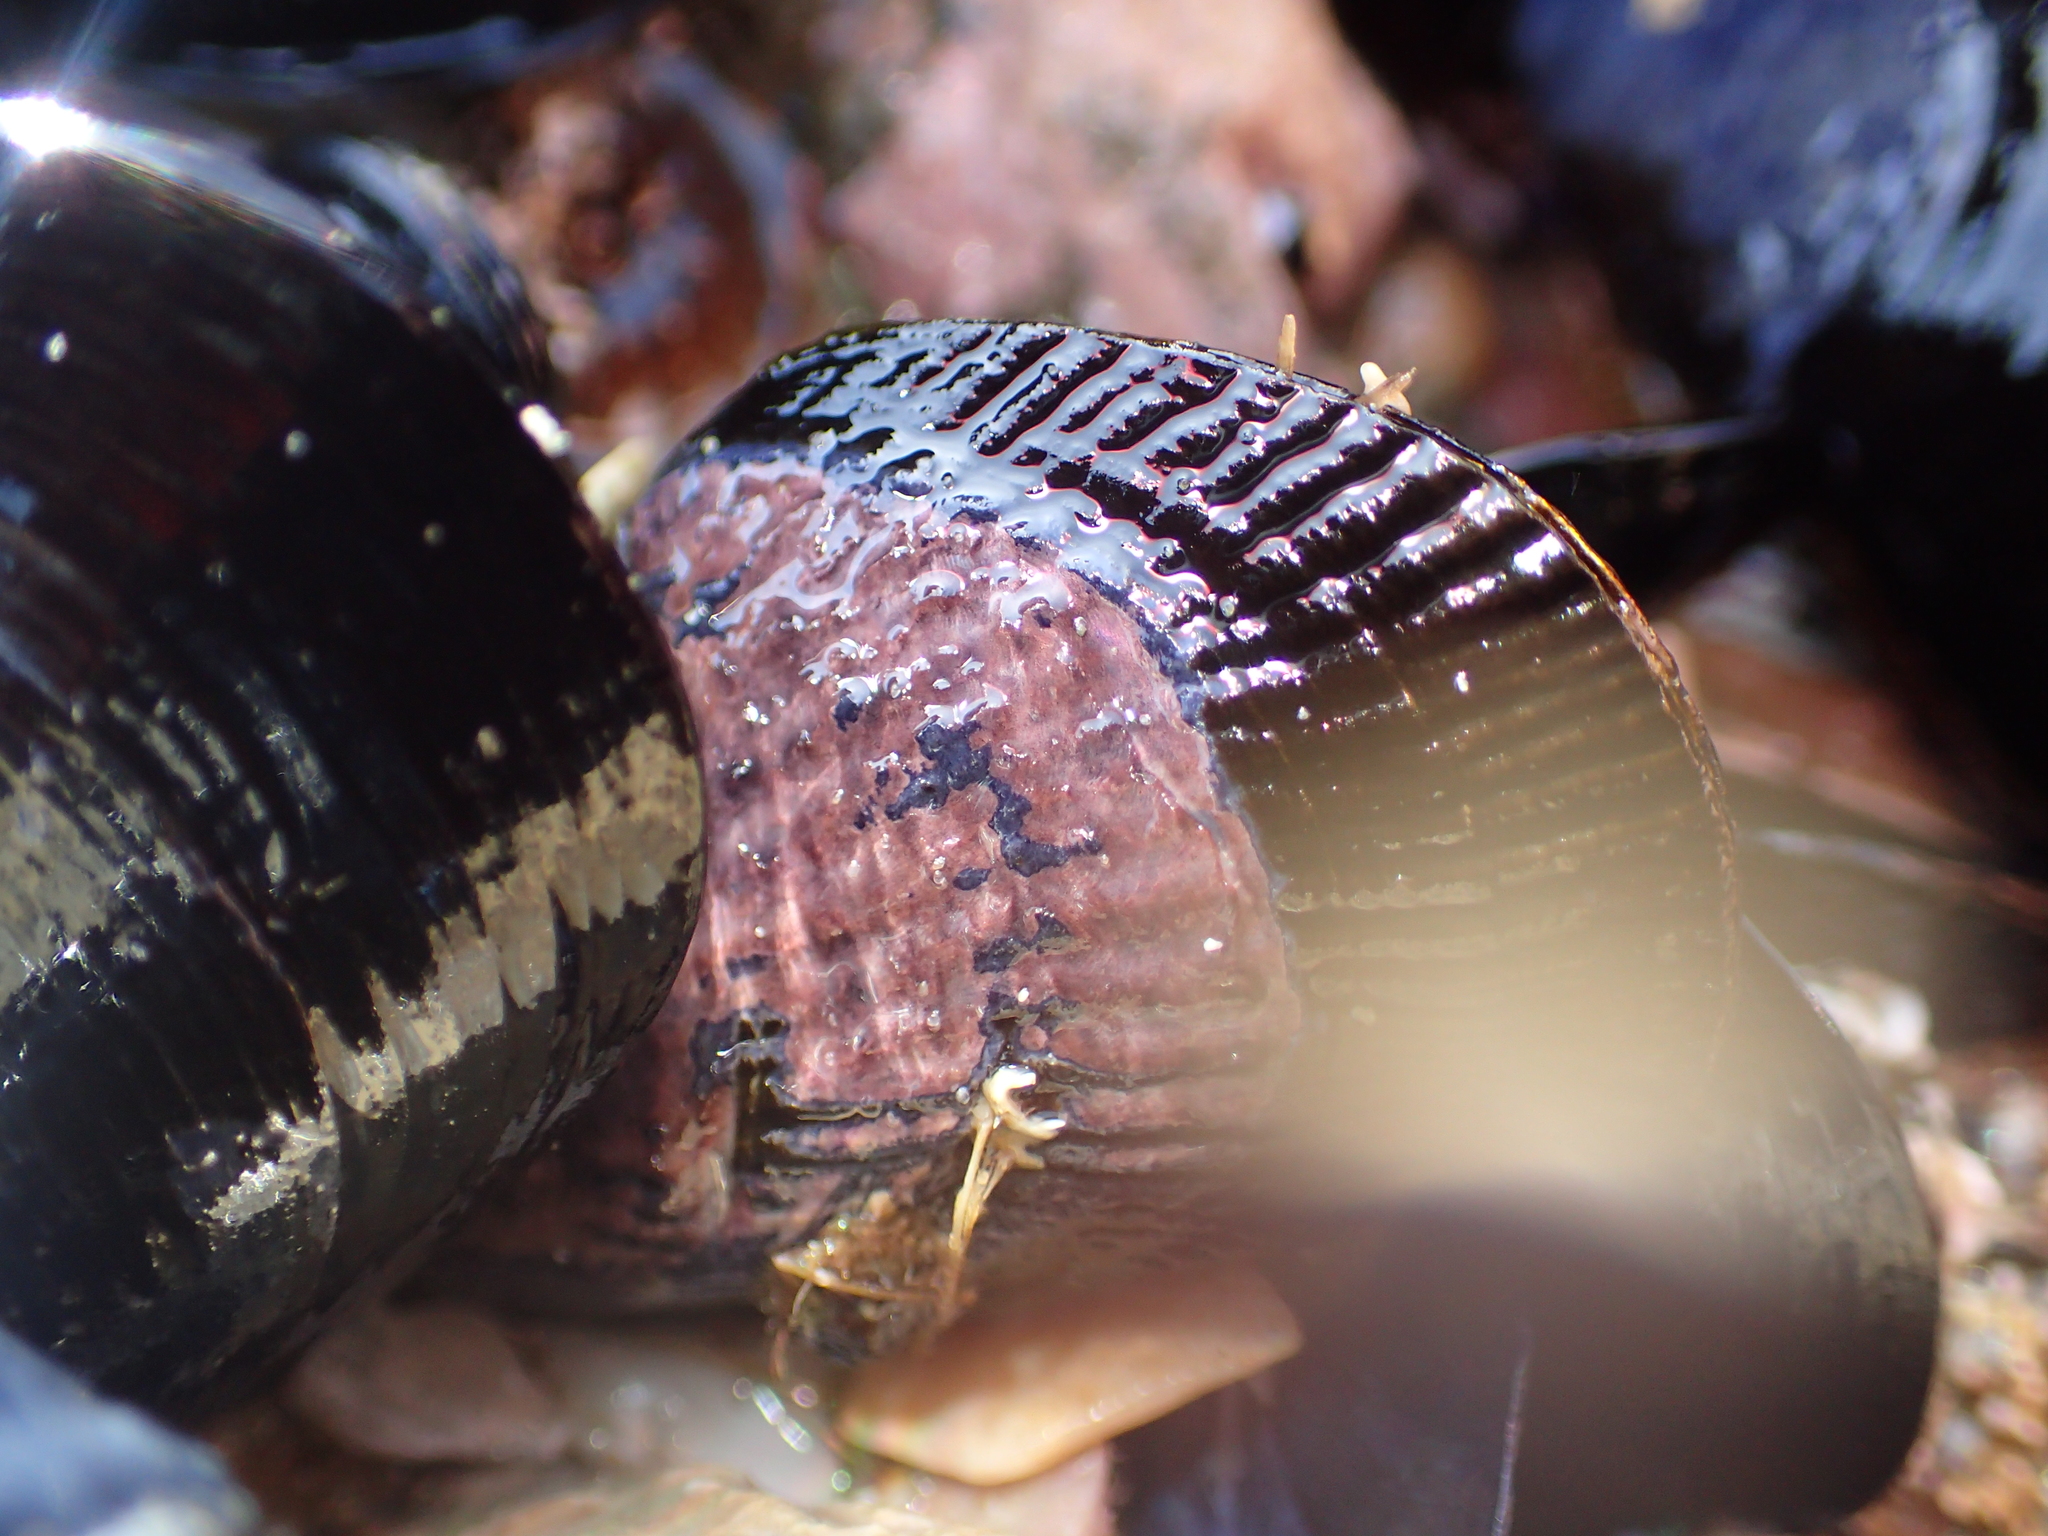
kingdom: Animalia
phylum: Mollusca
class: Bivalvia
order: Mytilida
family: Mytilidae
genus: Aulacomya
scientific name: Aulacomya maoriana
